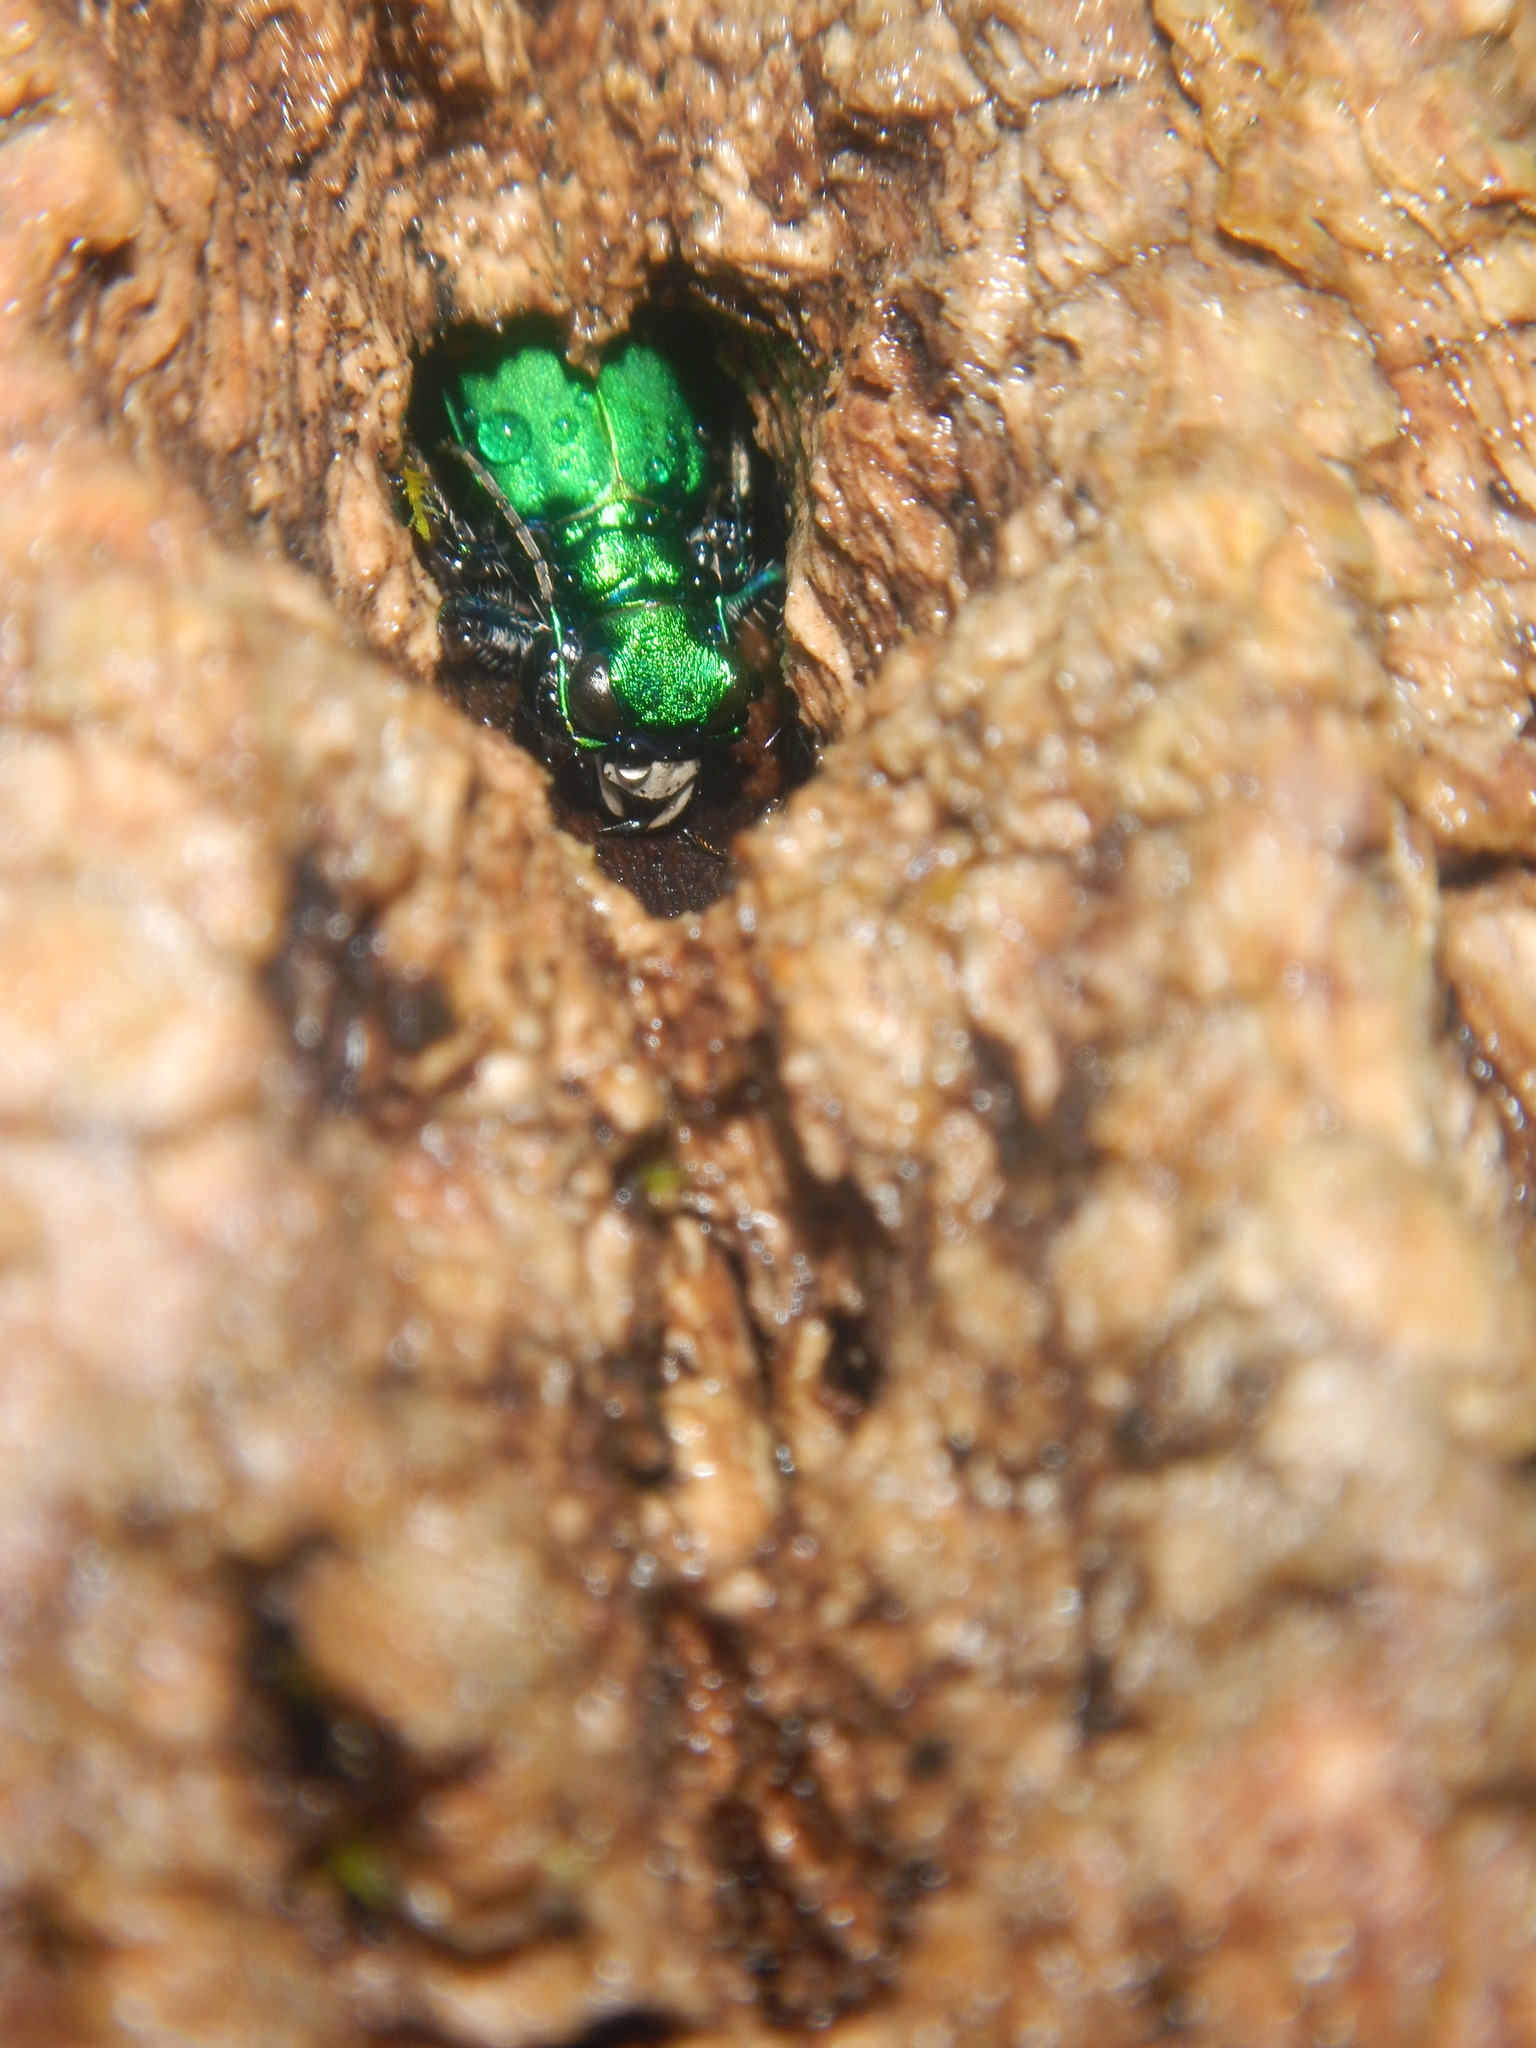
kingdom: Animalia
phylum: Arthropoda
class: Insecta
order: Coleoptera
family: Carabidae
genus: Cicindela
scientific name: Cicindela sexguttata
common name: Six-spotted tiger beetle
